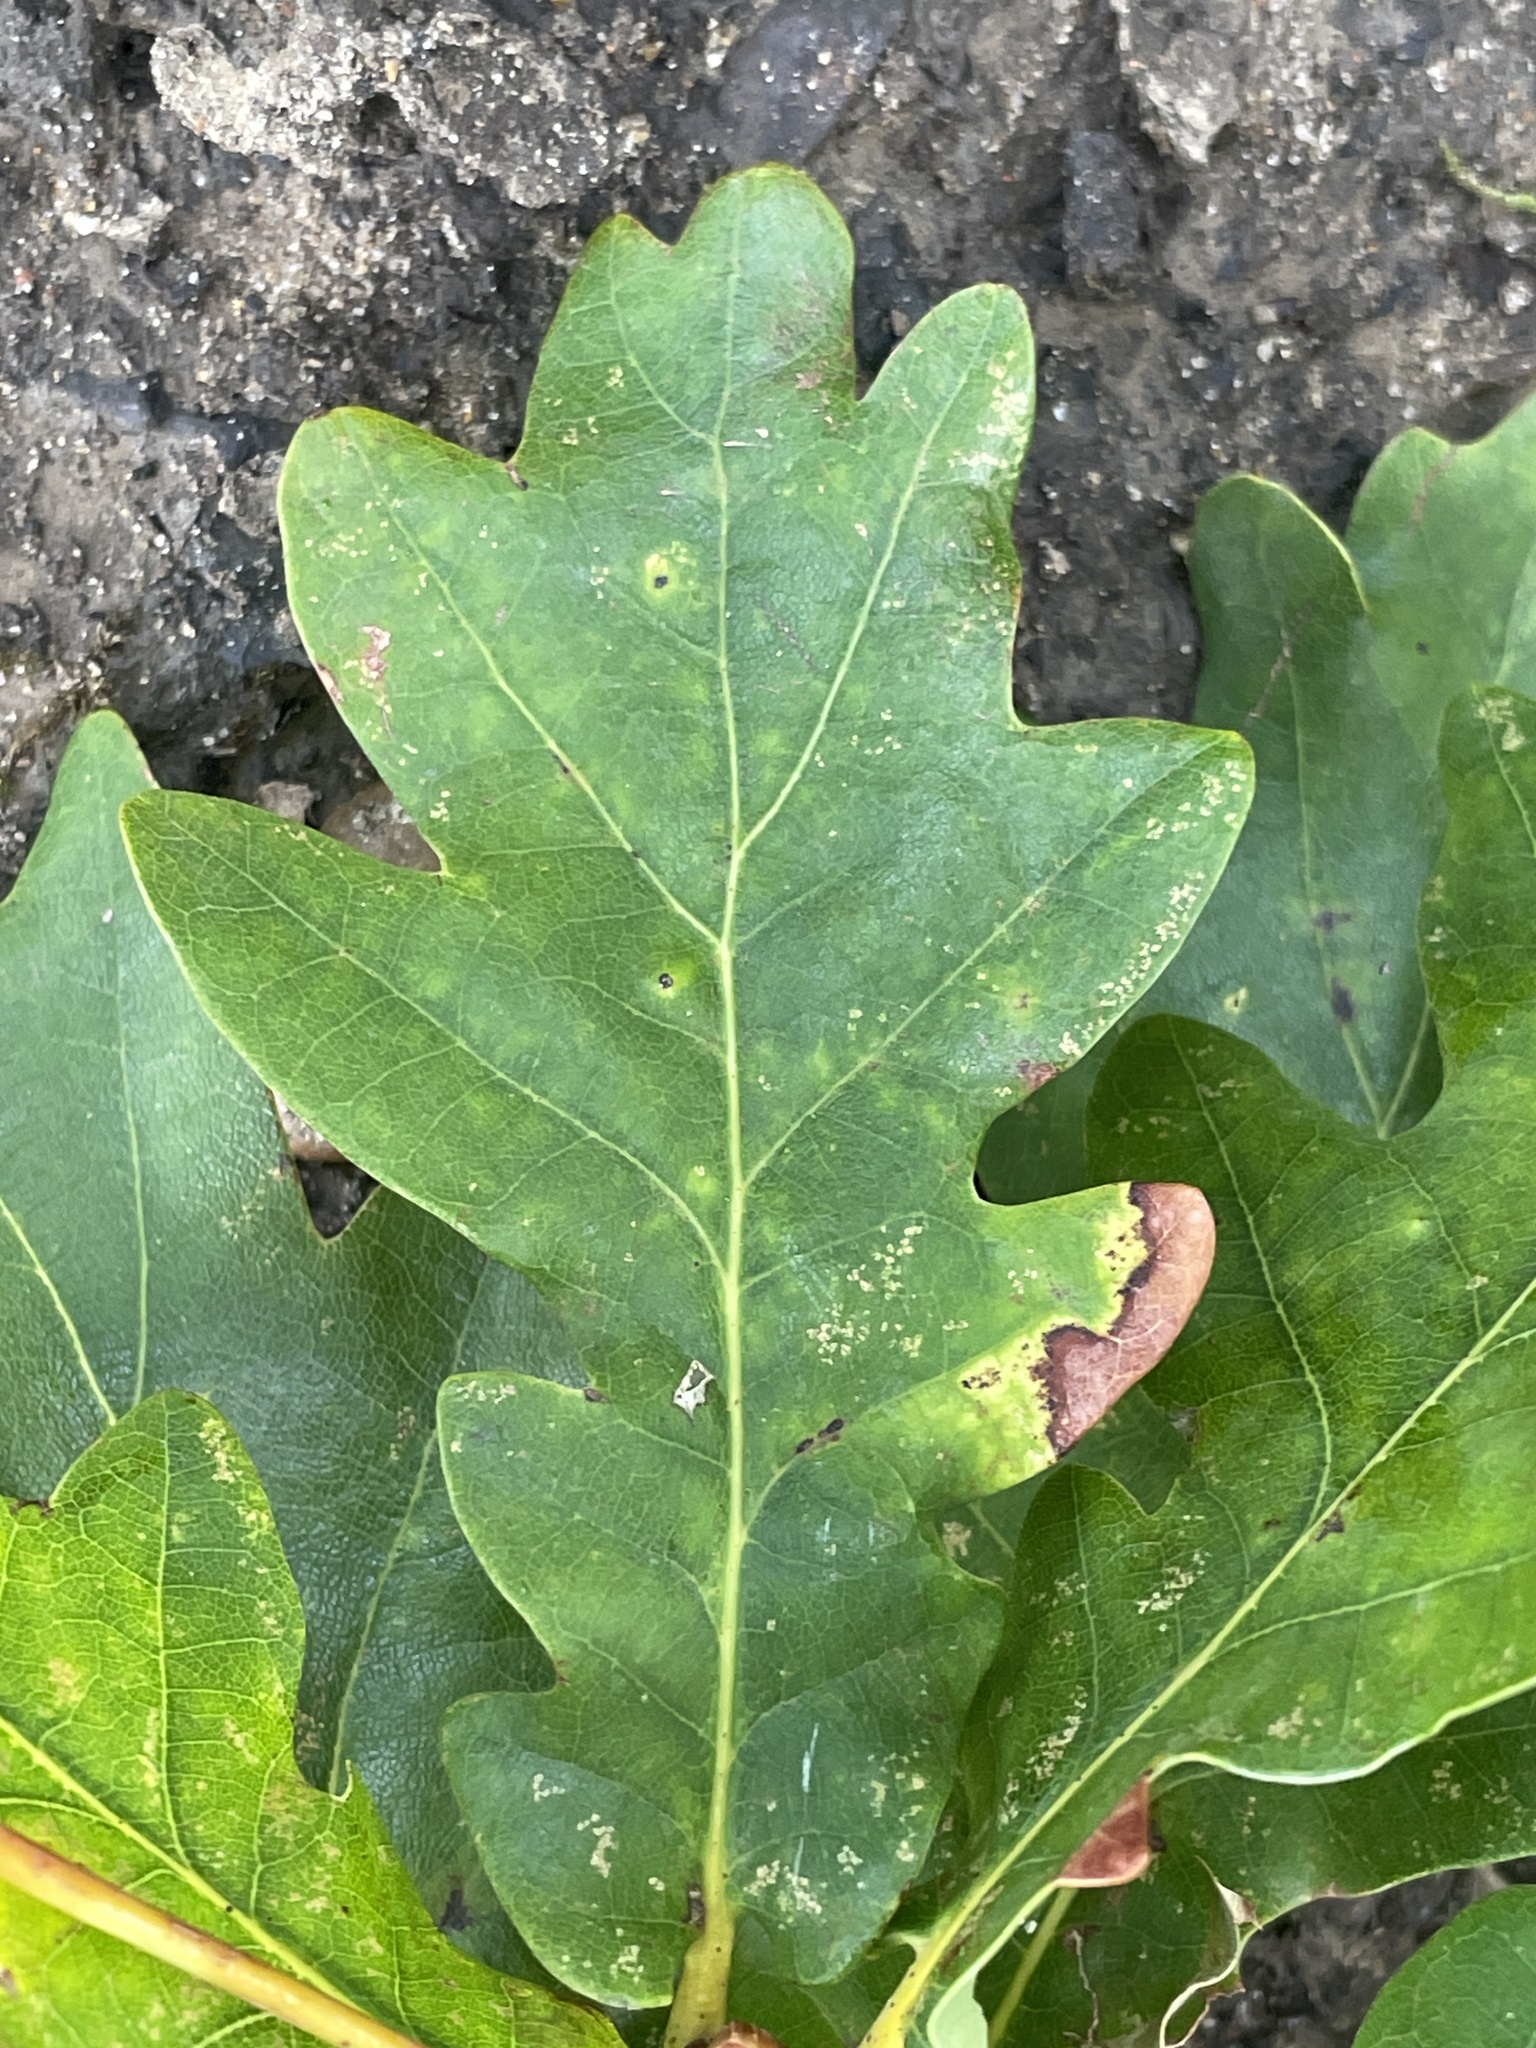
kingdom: Plantae
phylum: Tracheophyta
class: Magnoliopsida
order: Fagales
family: Fagaceae
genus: Quercus
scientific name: Quercus robur
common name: Pedunculate oak
